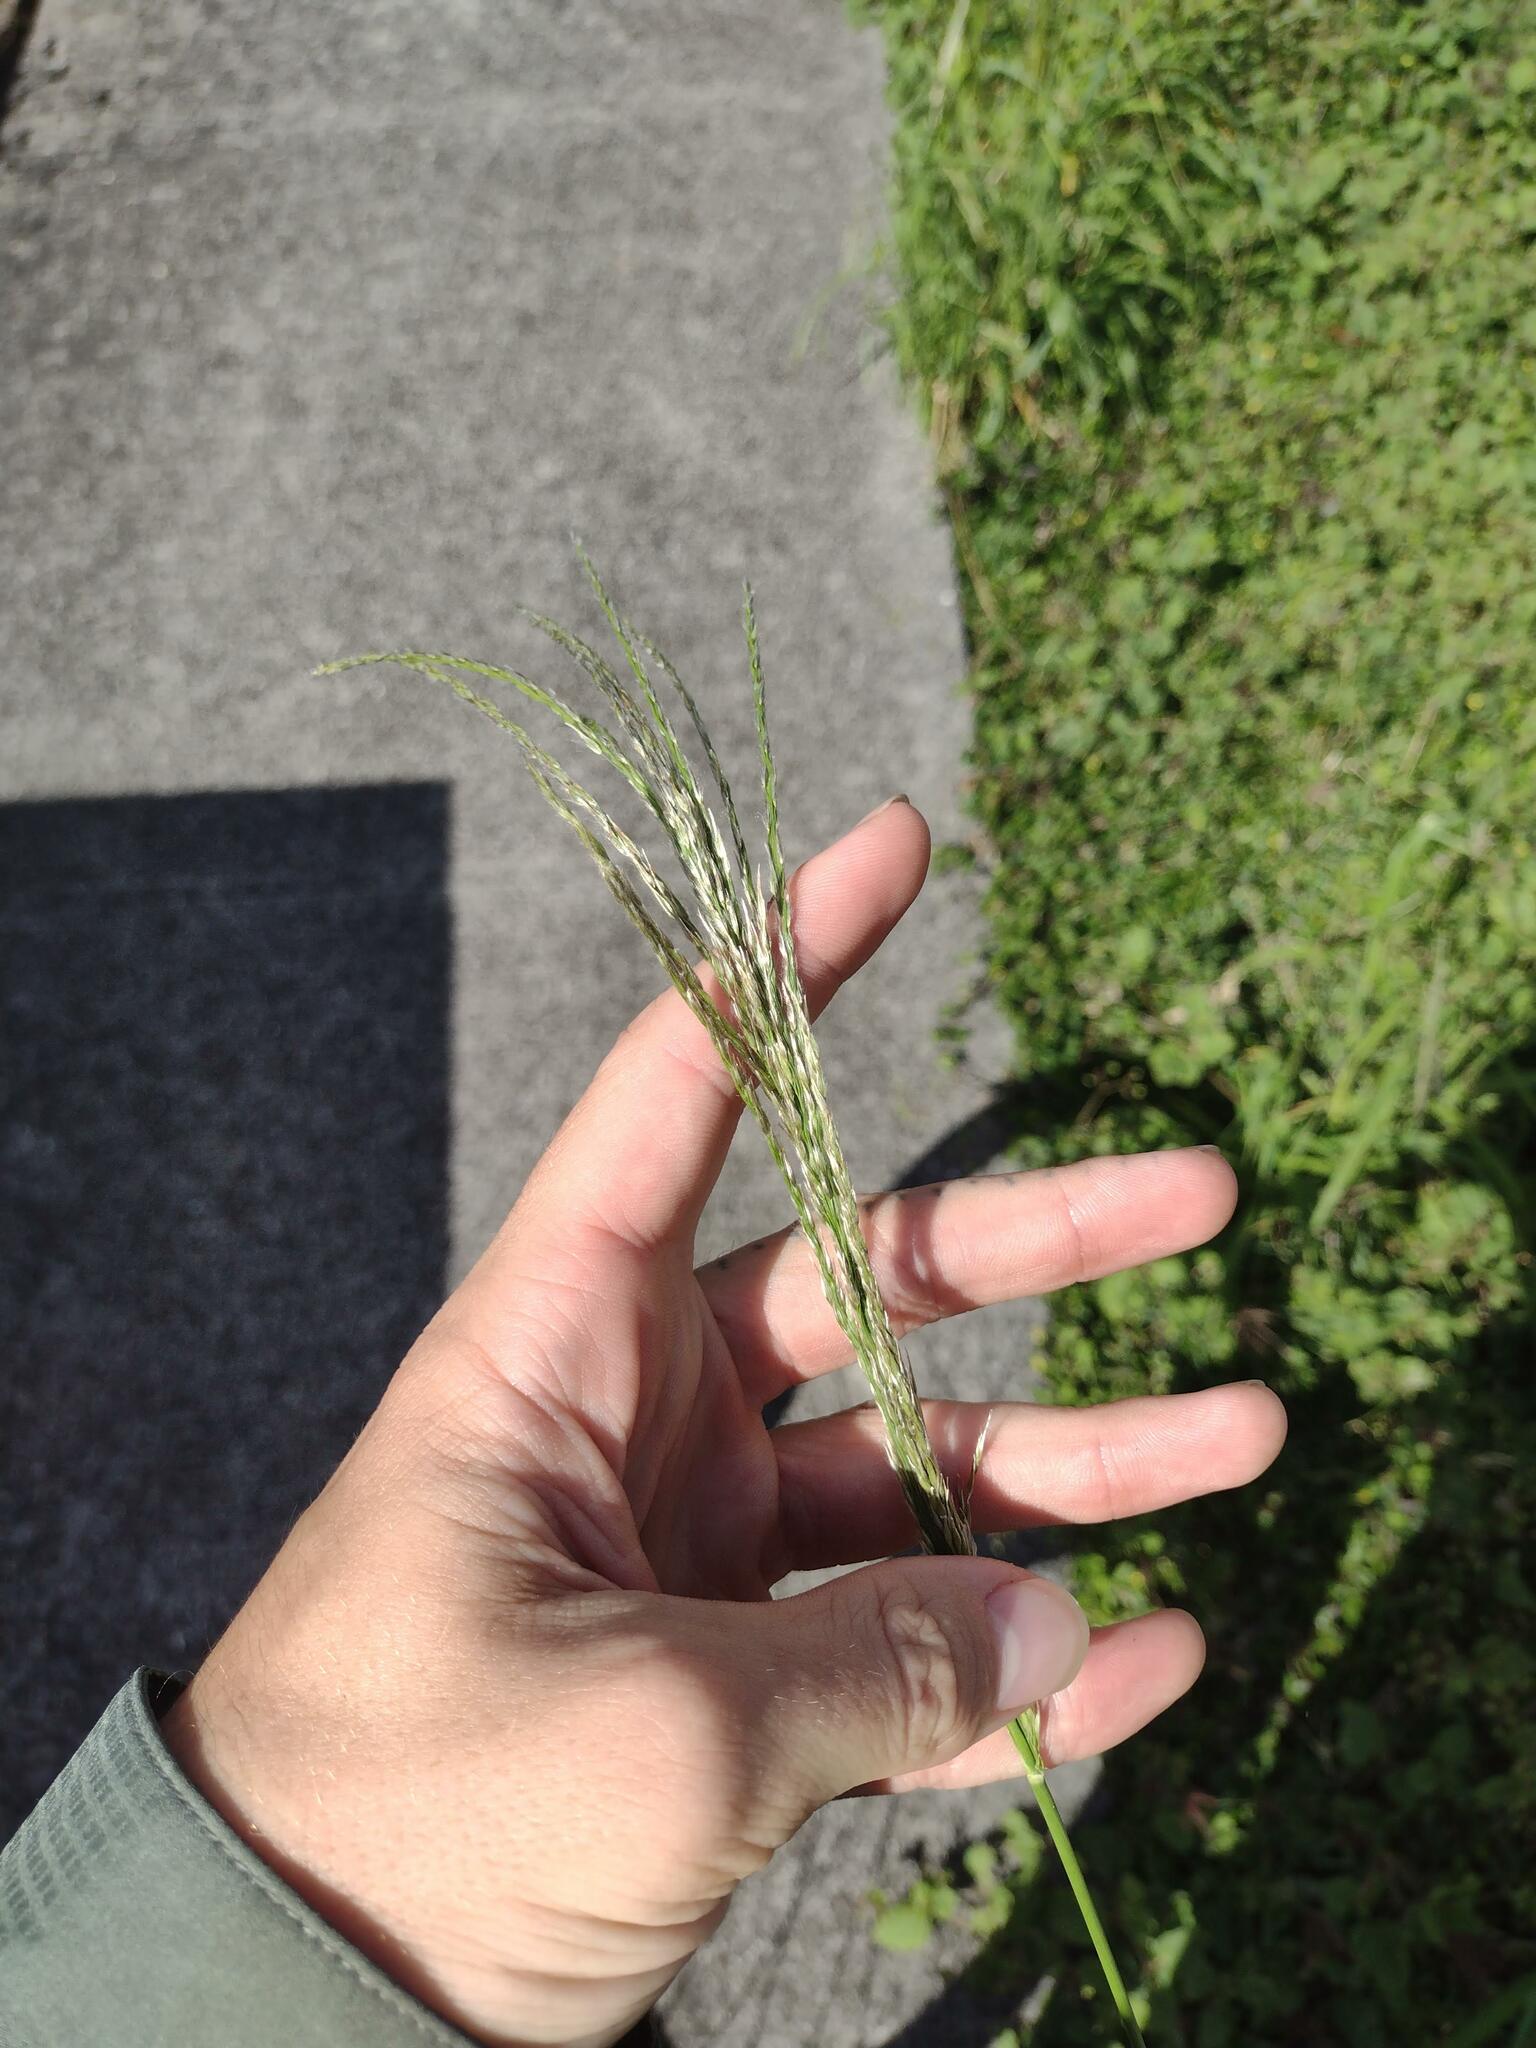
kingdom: Plantae
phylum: Tracheophyta
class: Liliopsida
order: Poales
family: Poaceae
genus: Digitaria
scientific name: Digitaria insularis
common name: Sourgrass
